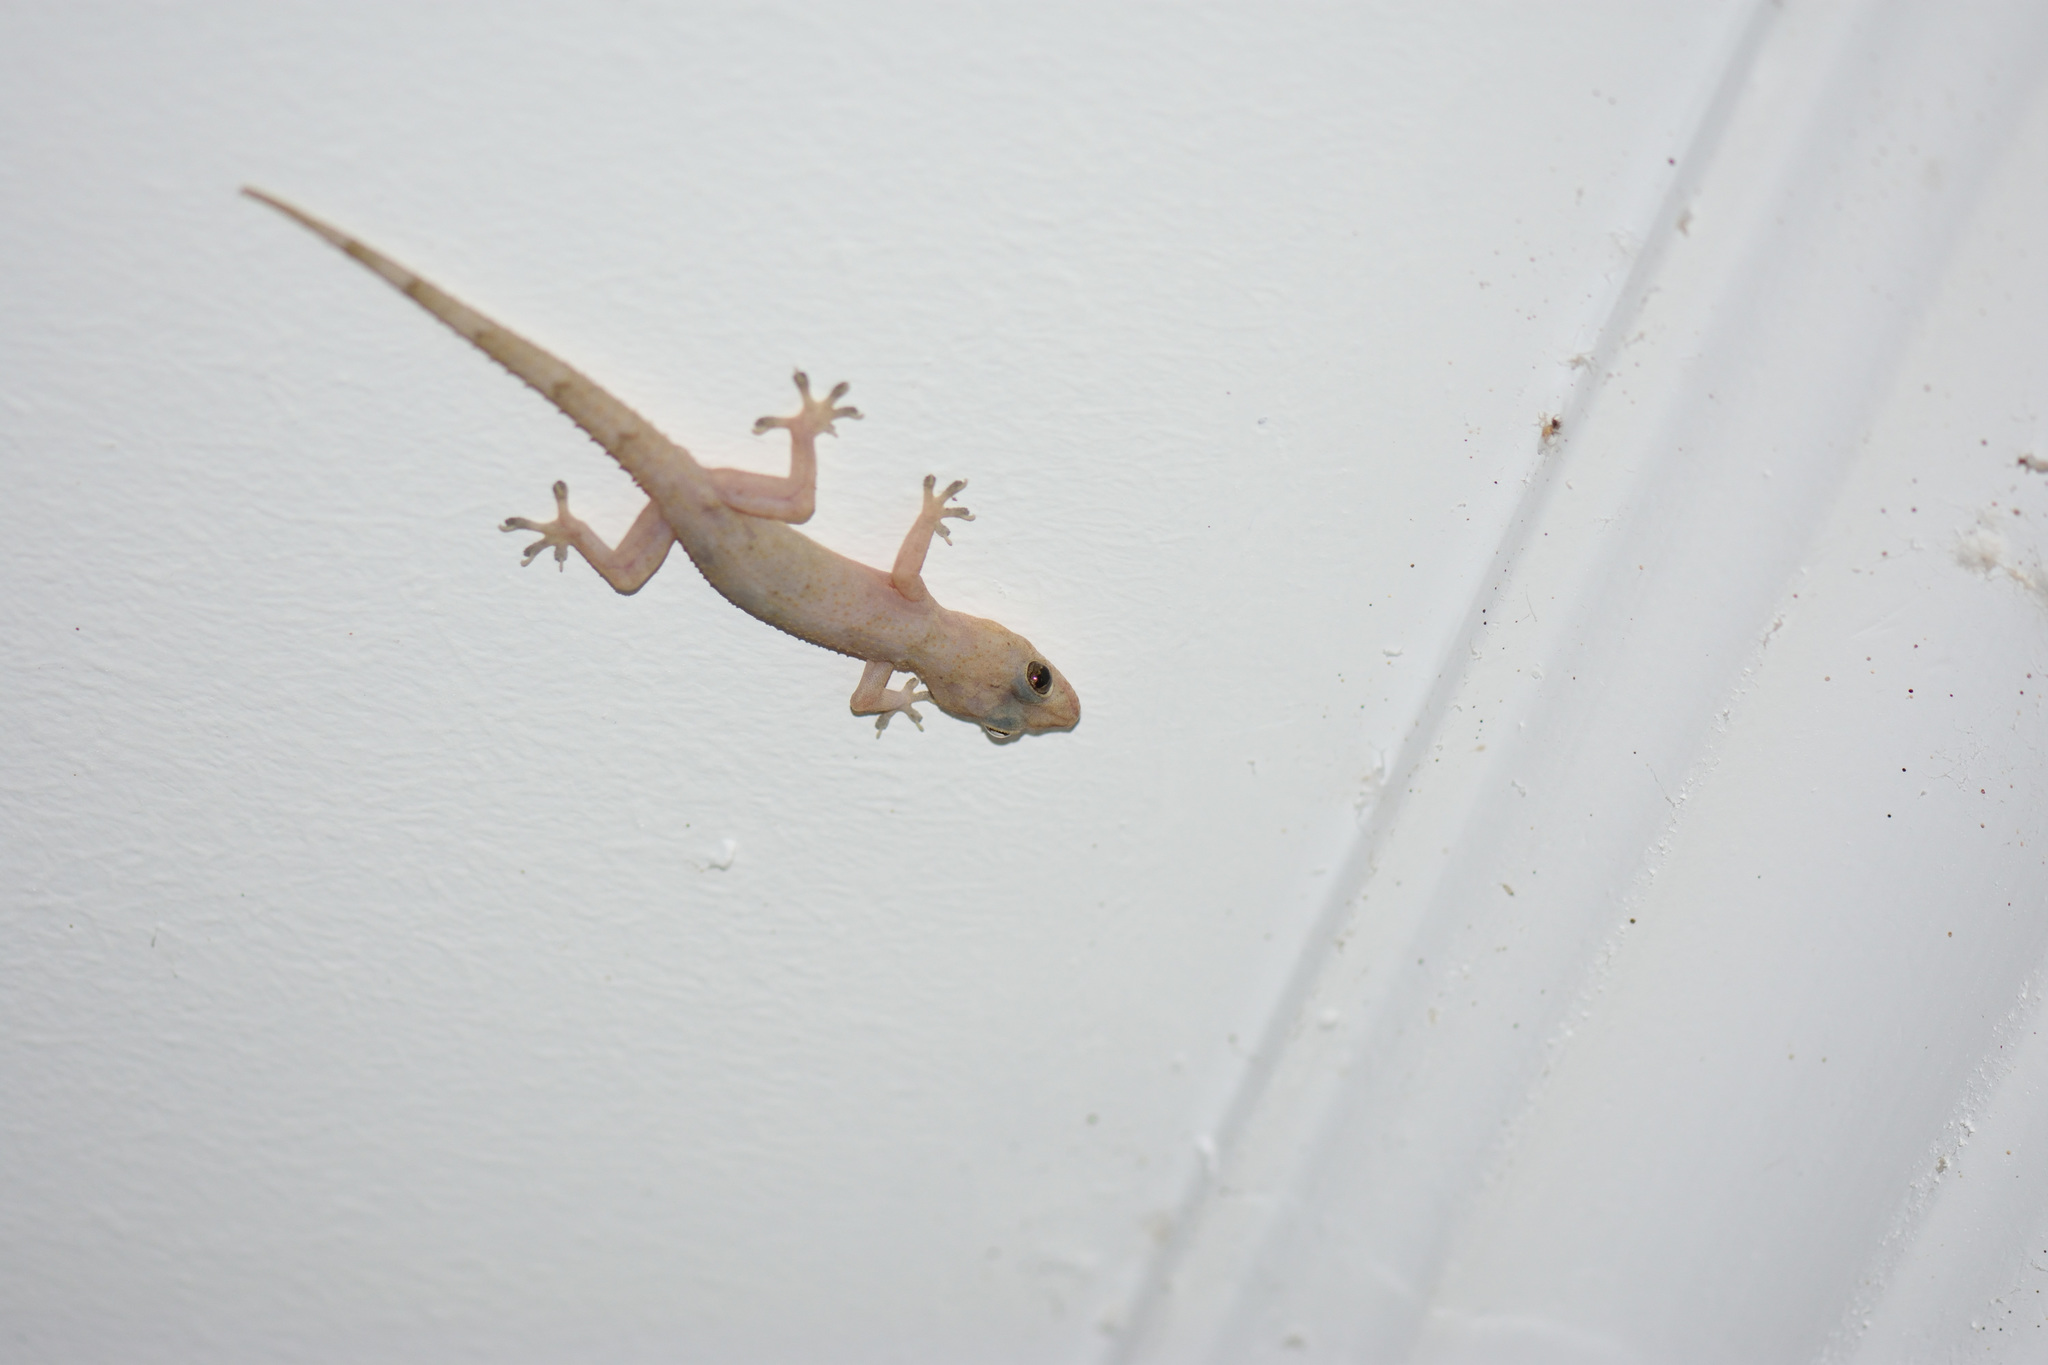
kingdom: Animalia
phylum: Chordata
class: Squamata
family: Gekkonidae
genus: Hemidactylus
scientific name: Hemidactylus mabouia
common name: House gecko
